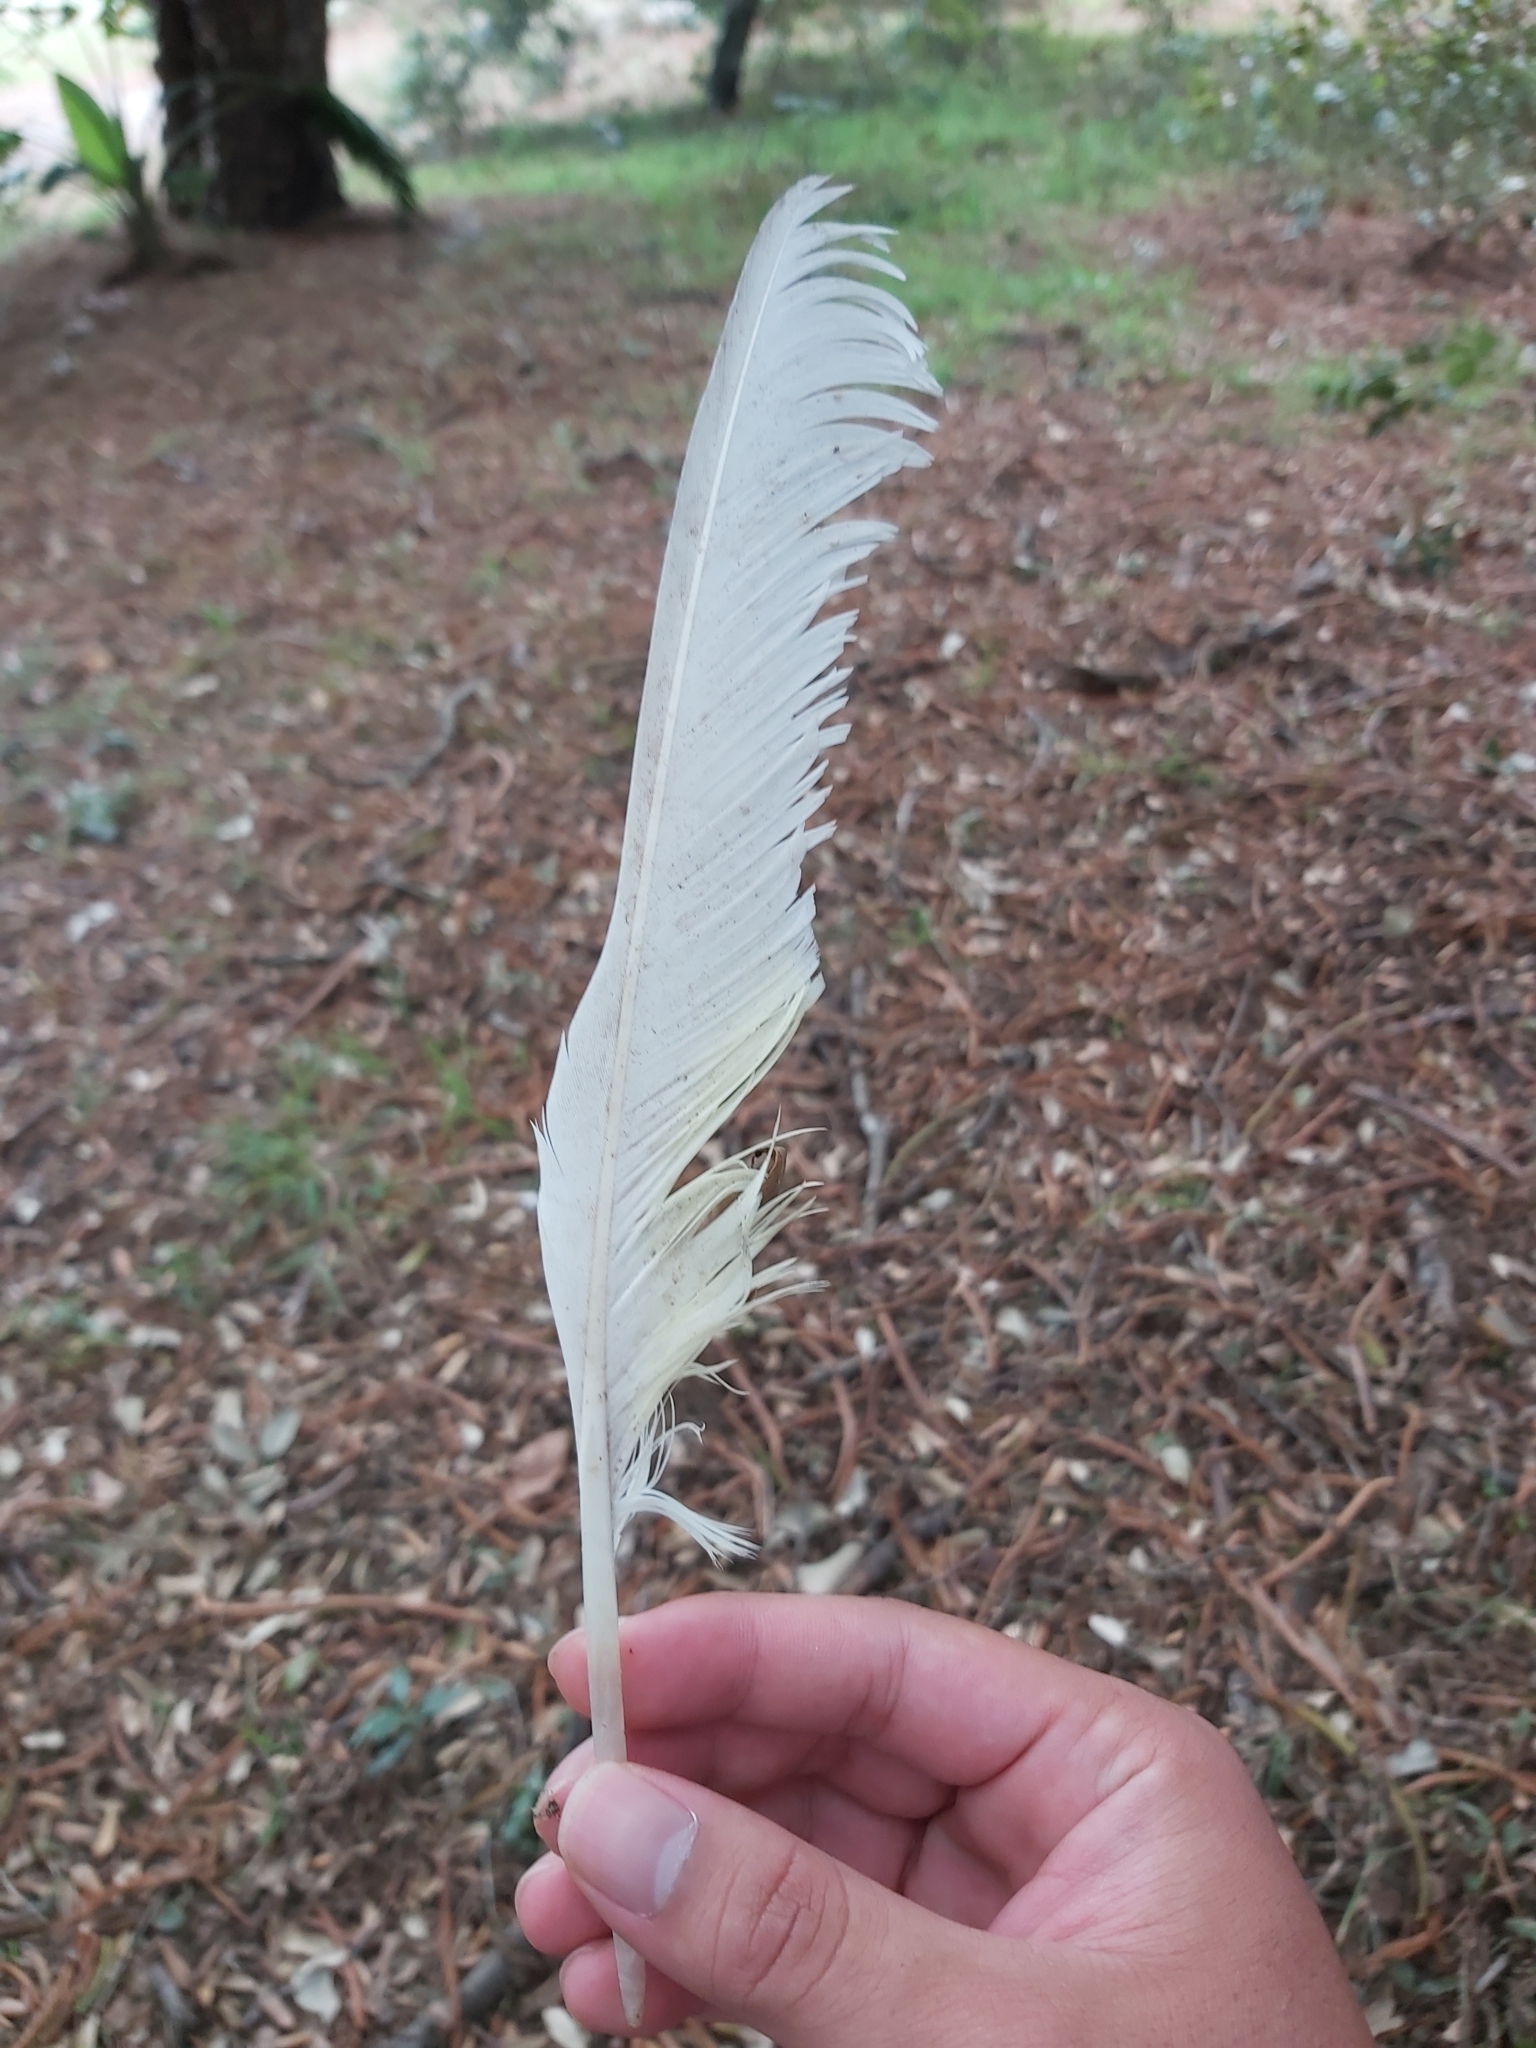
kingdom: Animalia
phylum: Chordata
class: Aves
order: Psittaciformes
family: Psittacidae
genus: Cacatua
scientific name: Cacatua galerita
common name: Sulphur-crested cockatoo
